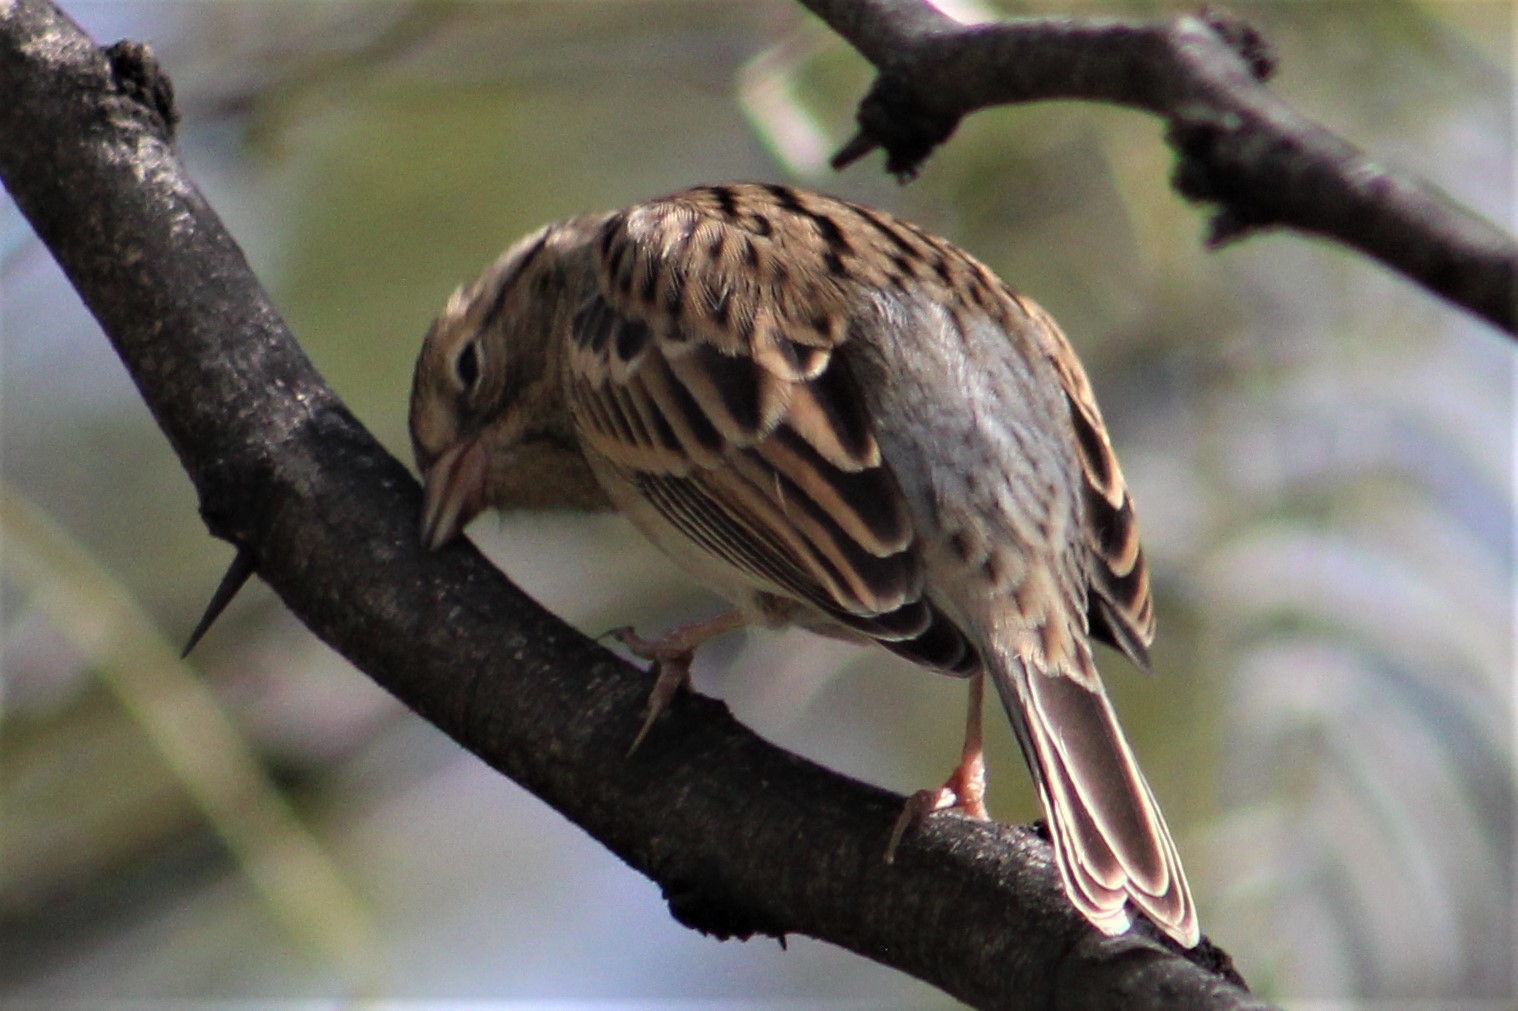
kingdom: Animalia
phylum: Chordata
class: Aves
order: Passeriformes
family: Passerellidae
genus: Spizella
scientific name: Spizella passerina
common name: Chipping sparrow
